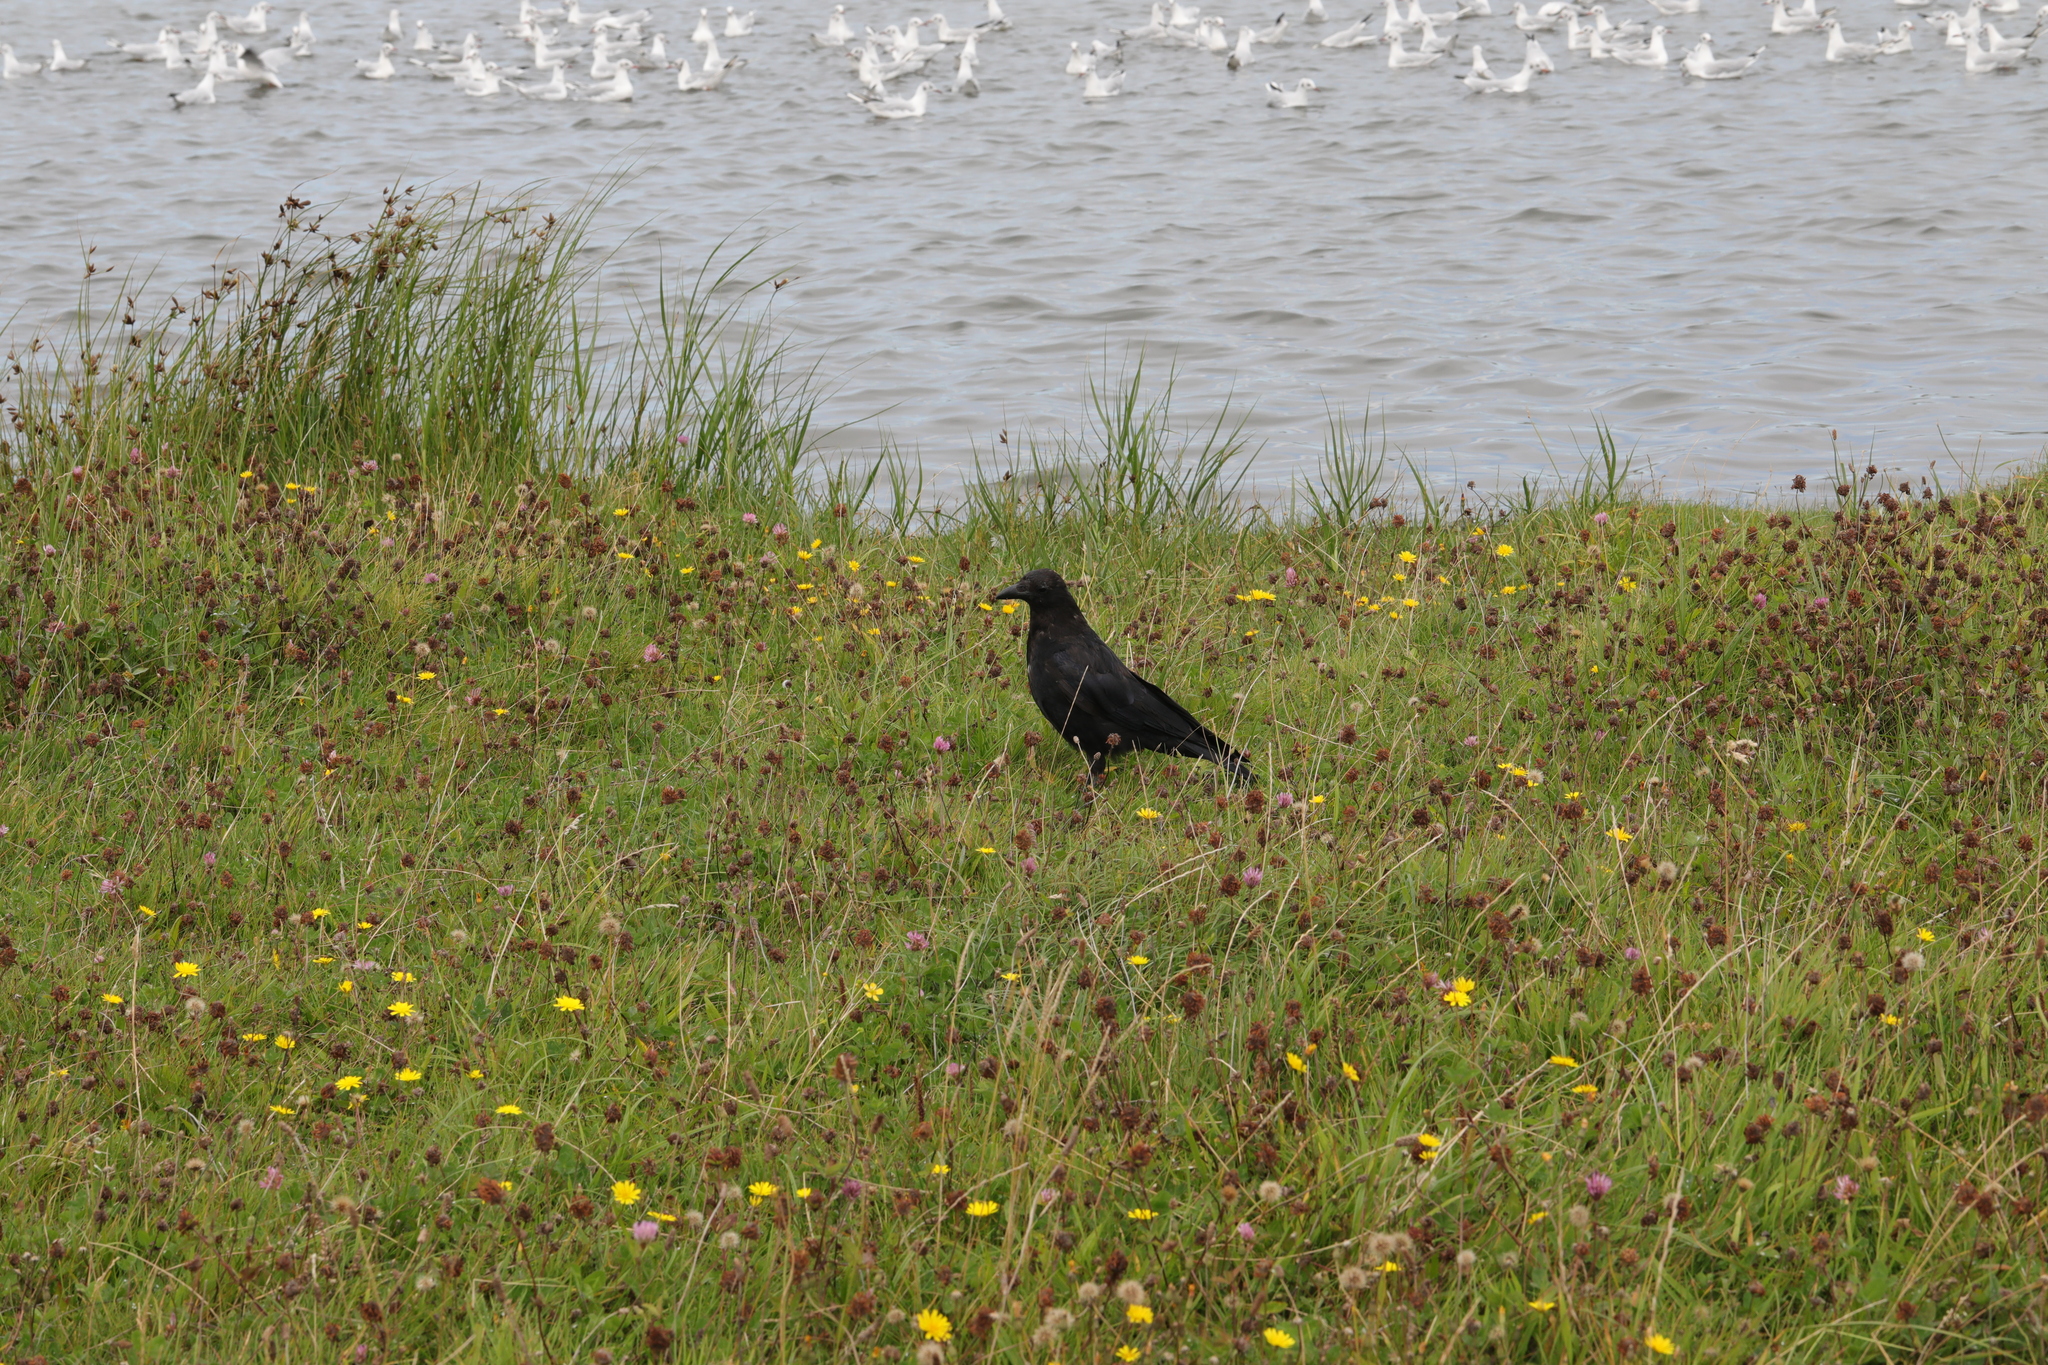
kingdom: Animalia
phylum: Chordata
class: Aves
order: Passeriformes
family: Corvidae
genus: Corvus
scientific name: Corvus corone
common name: Carrion crow
